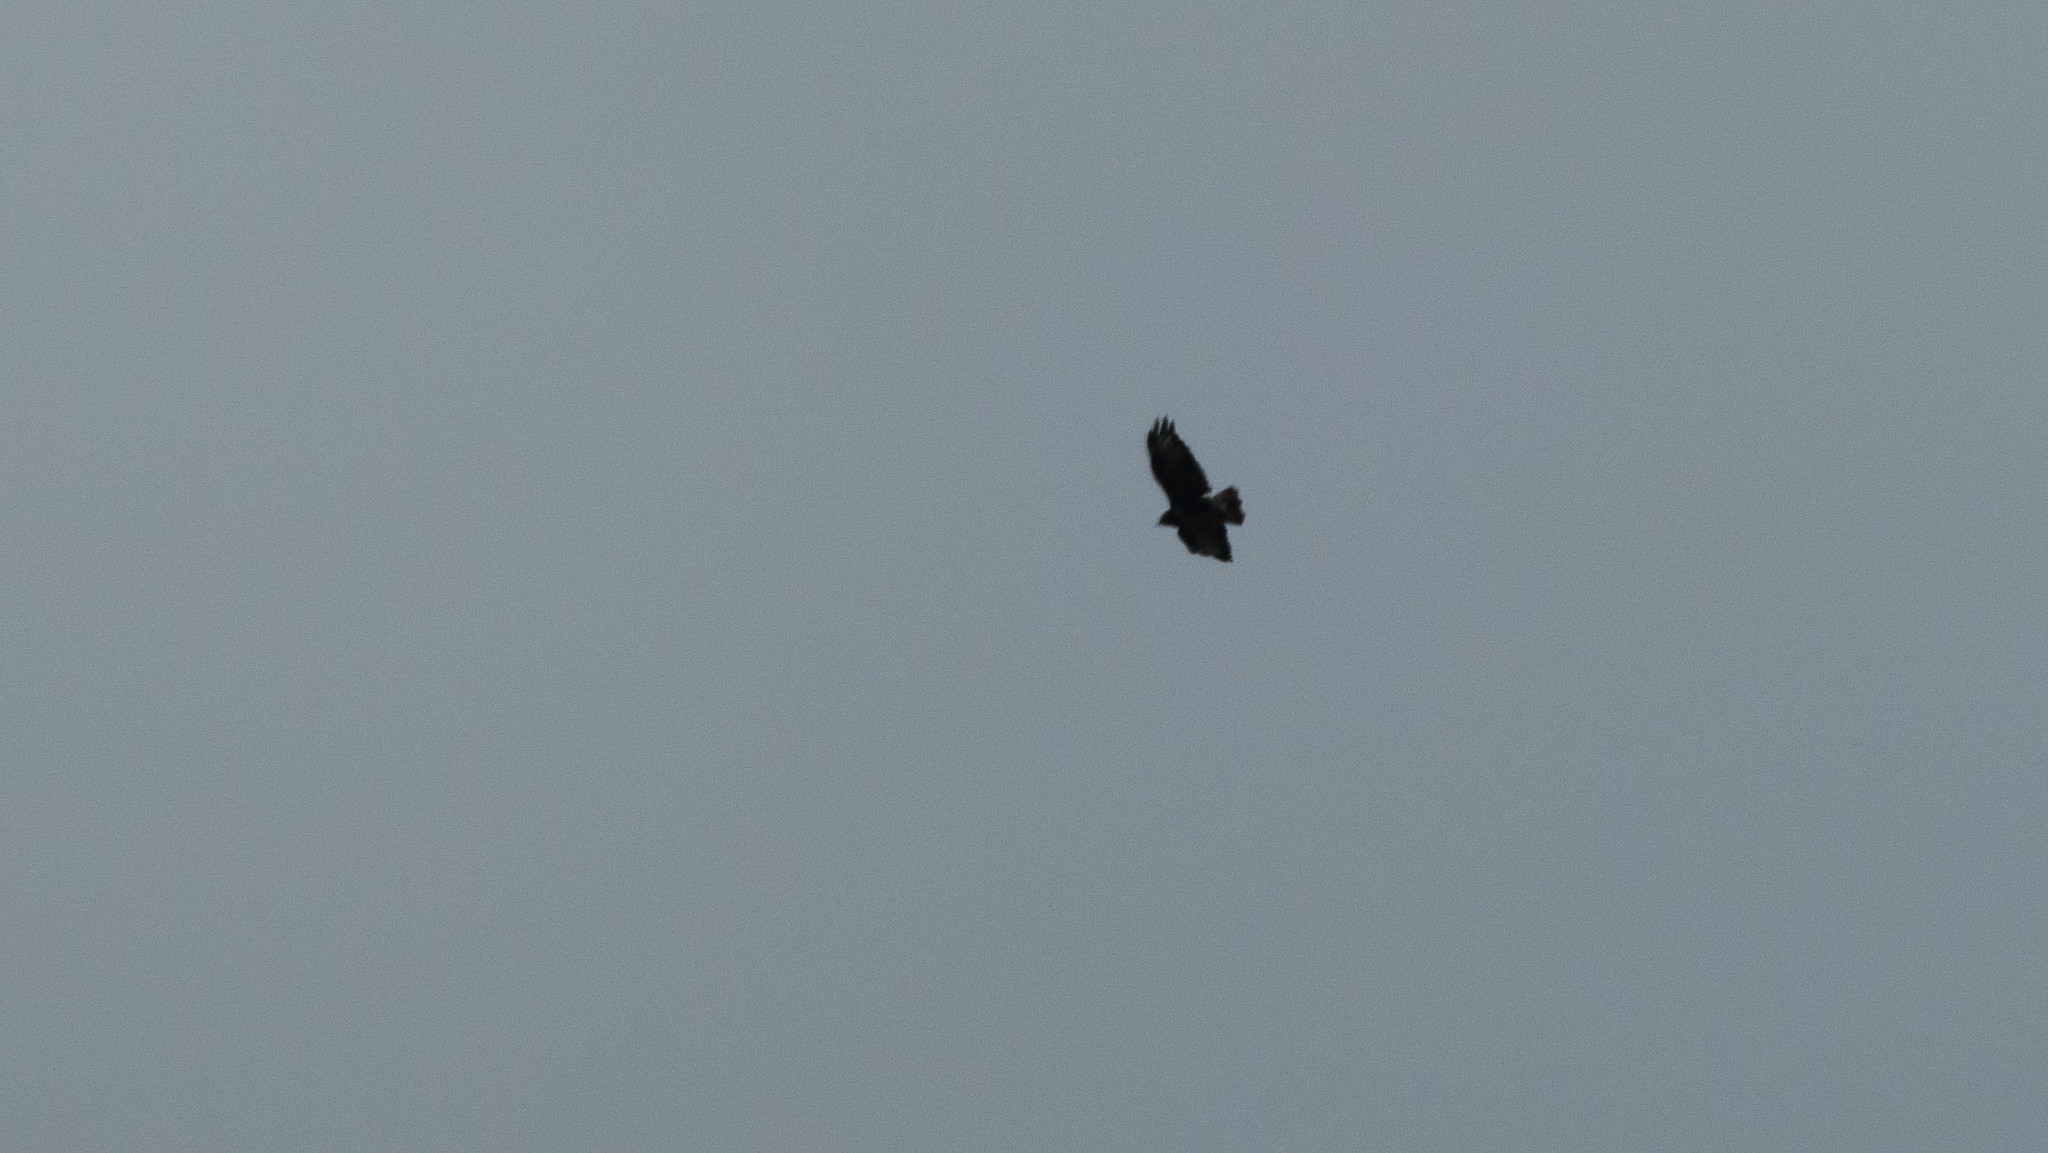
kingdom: Animalia
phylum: Chordata
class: Aves
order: Accipitriformes
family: Accipitridae
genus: Buteo
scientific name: Buteo buteo
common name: Common buzzard
